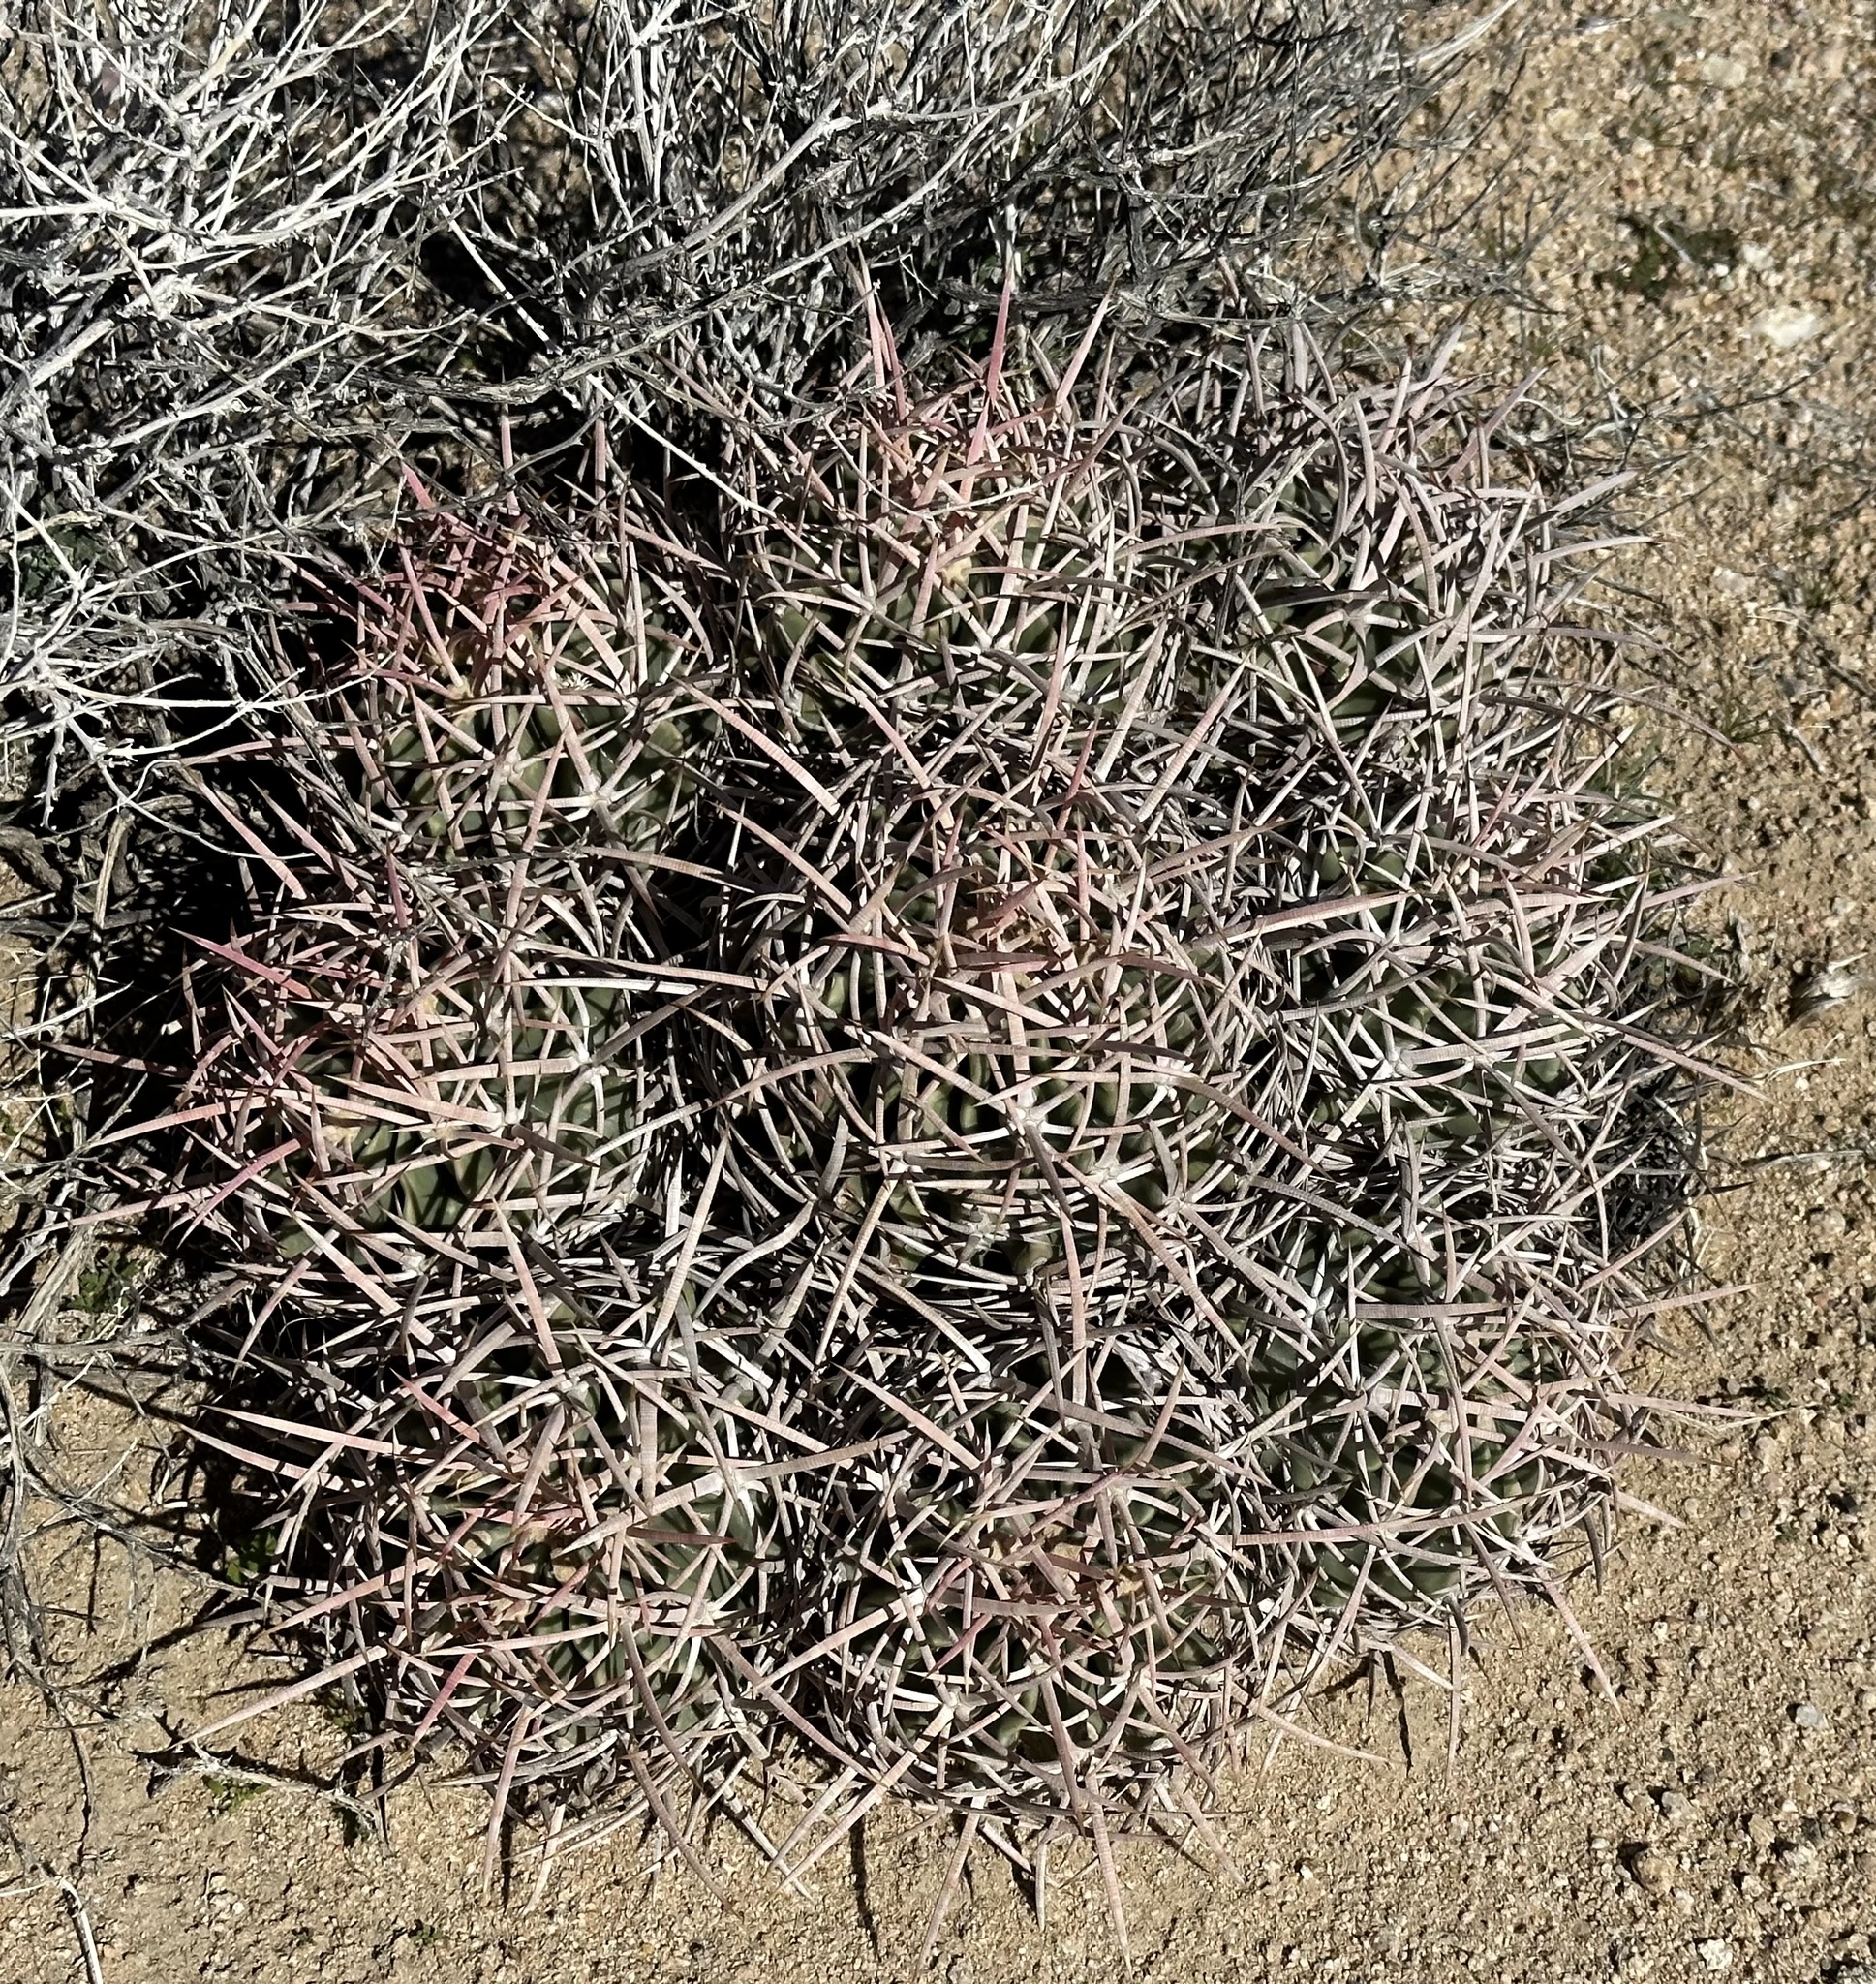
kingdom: Plantae
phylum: Tracheophyta
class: Magnoliopsida
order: Caryophyllales
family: Cactaceae
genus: Echinocactus
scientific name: Echinocactus polycephalus
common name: Cottontop cactus
